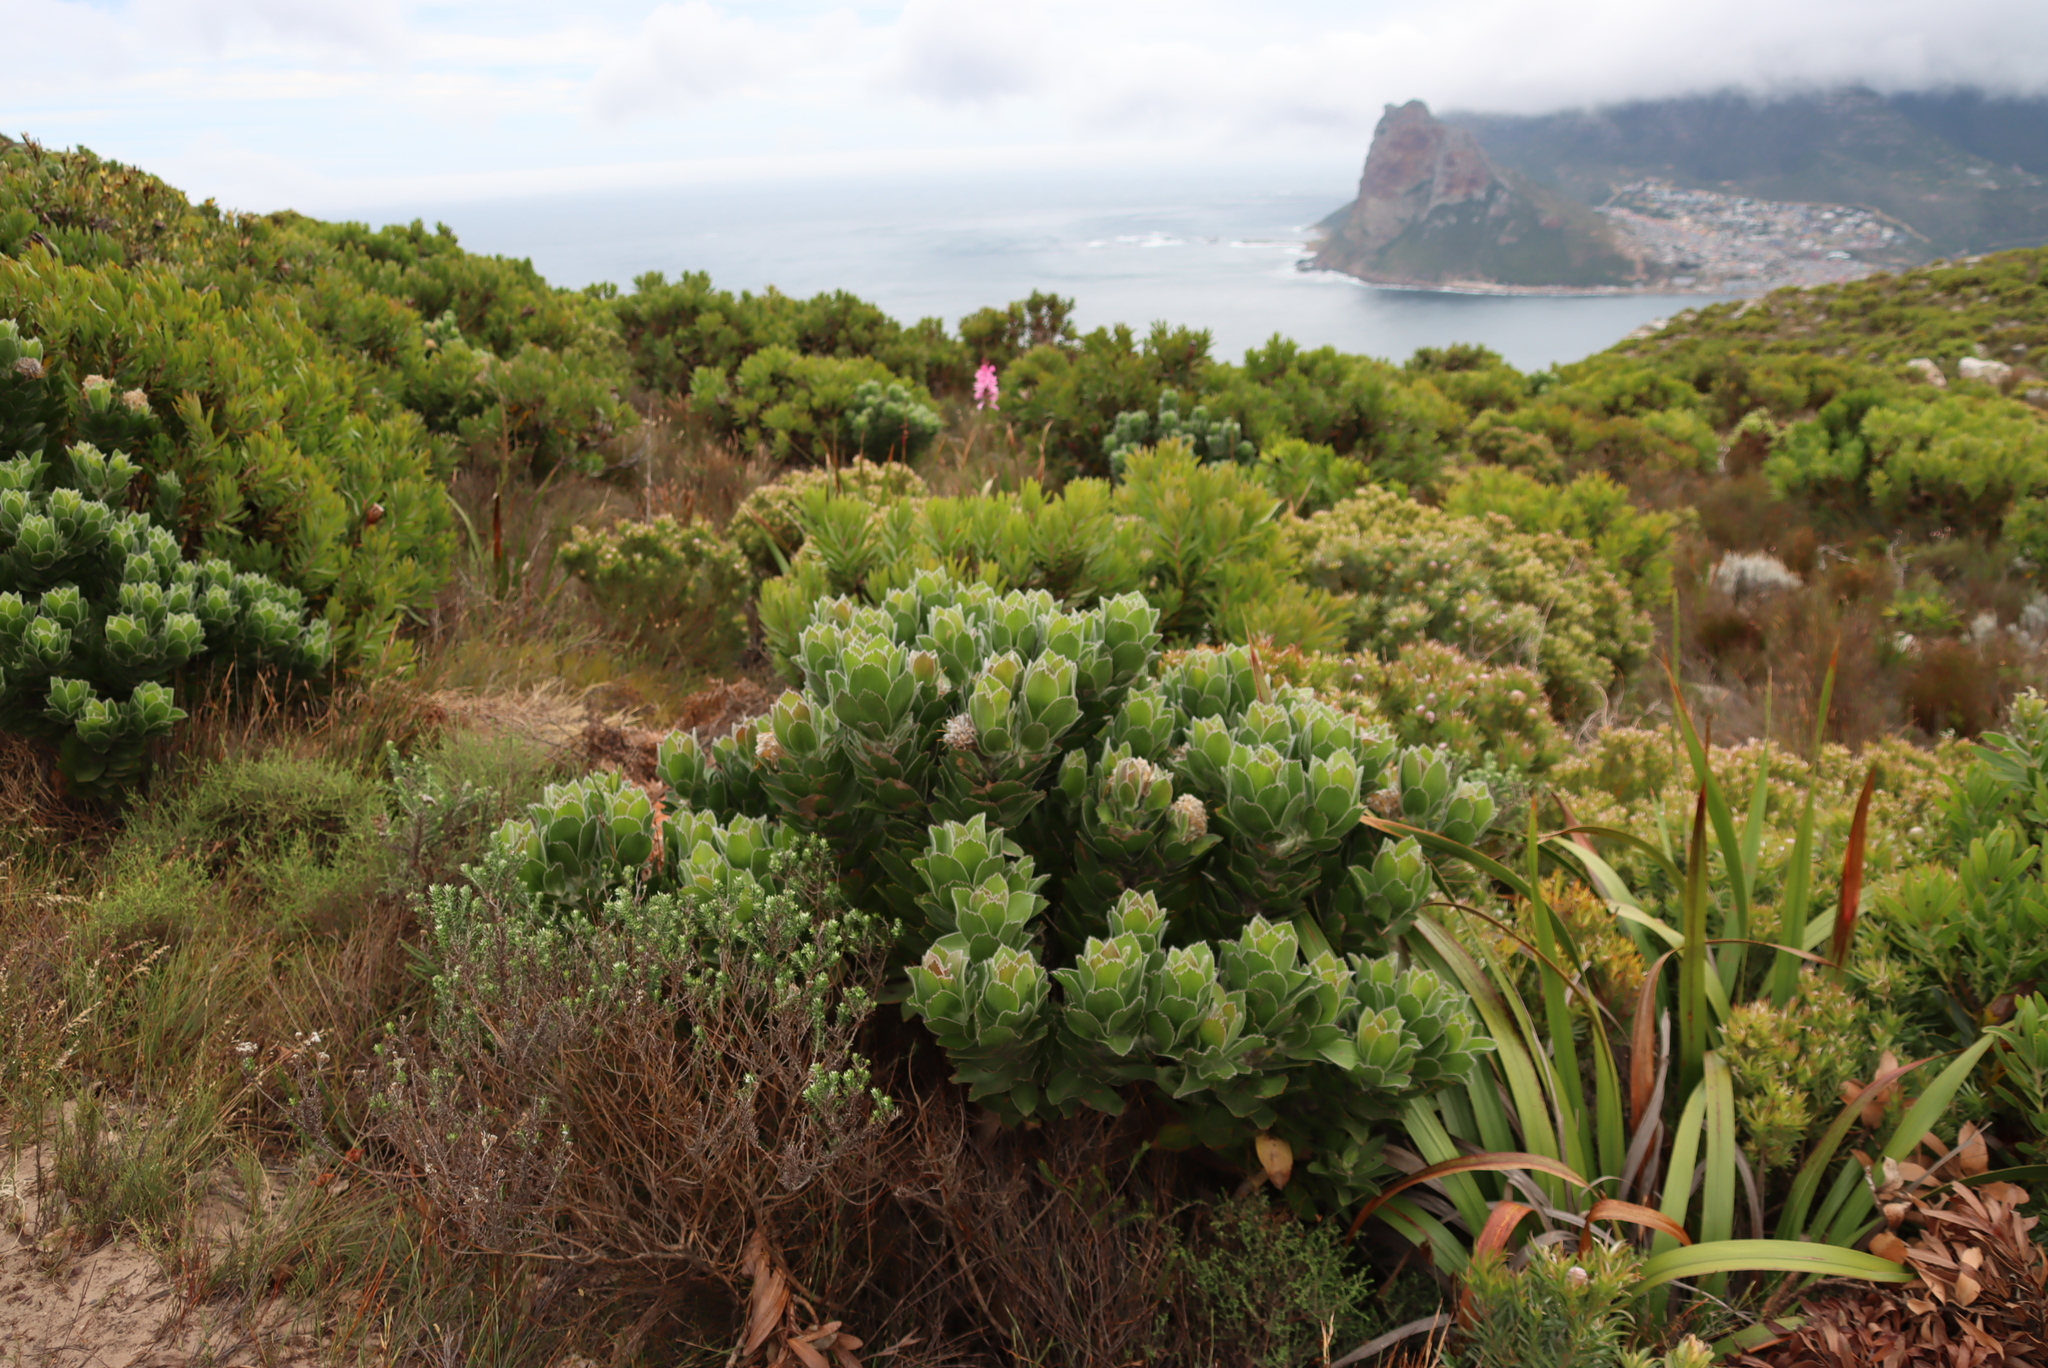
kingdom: Plantae
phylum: Tracheophyta
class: Magnoliopsida
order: Proteales
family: Proteaceae
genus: Leucospermum
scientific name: Leucospermum conocarpodendron
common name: Tree pincushion
